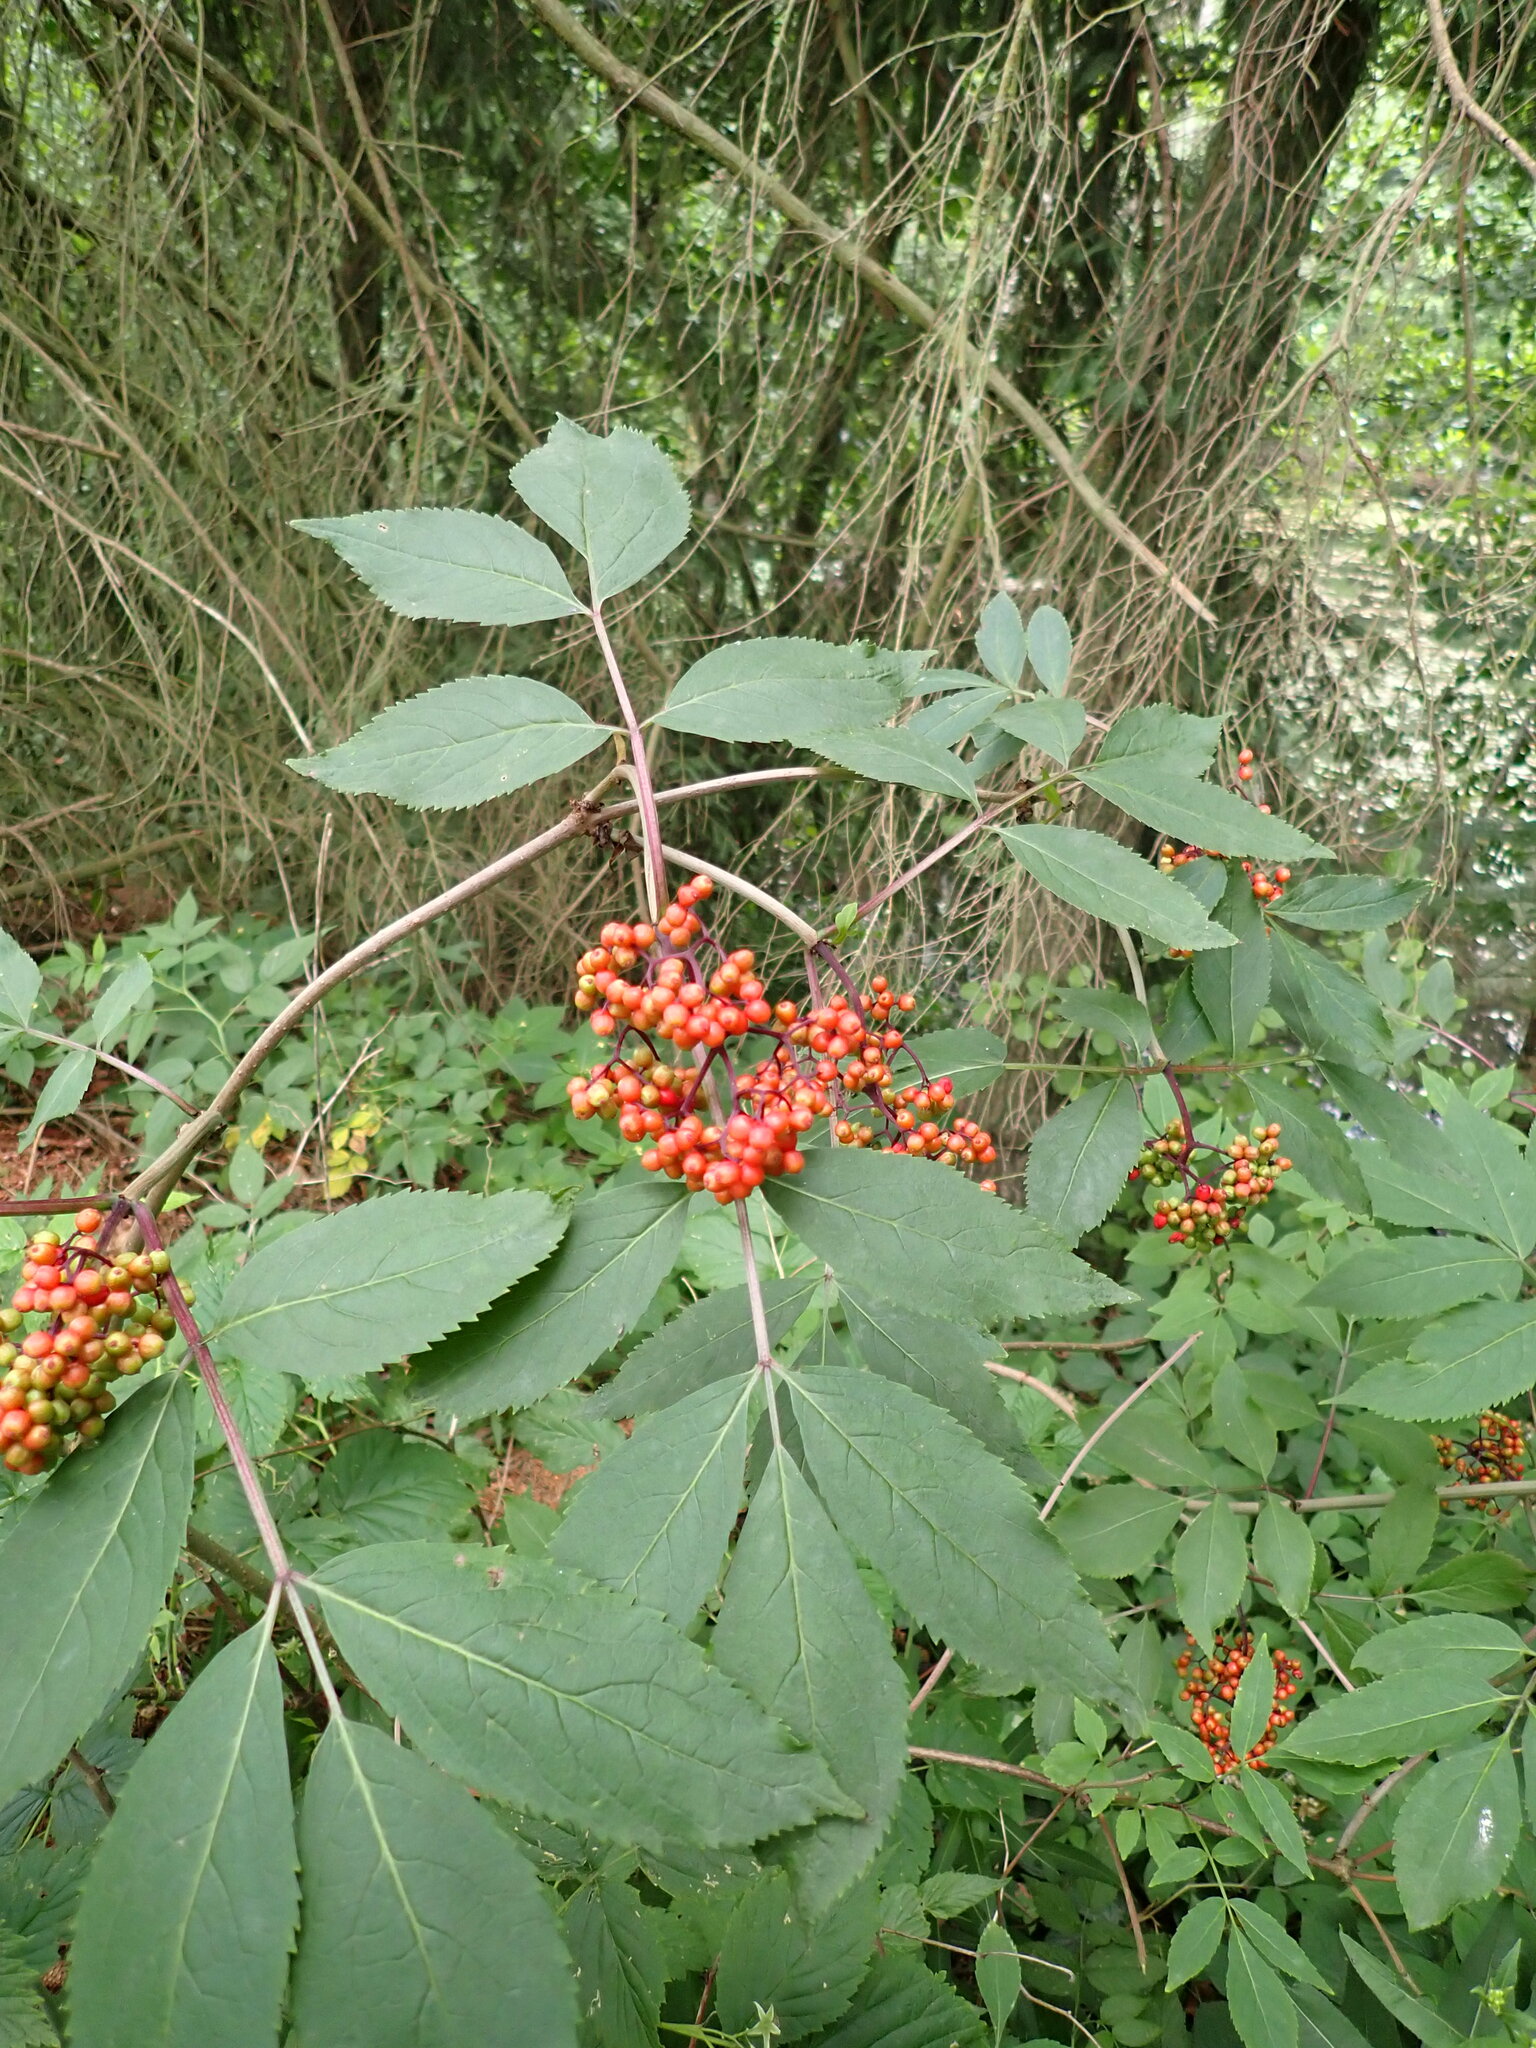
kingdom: Plantae
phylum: Tracheophyta
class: Magnoliopsida
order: Dipsacales
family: Viburnaceae
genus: Sambucus
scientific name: Sambucus racemosa
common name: Red-berried elder
